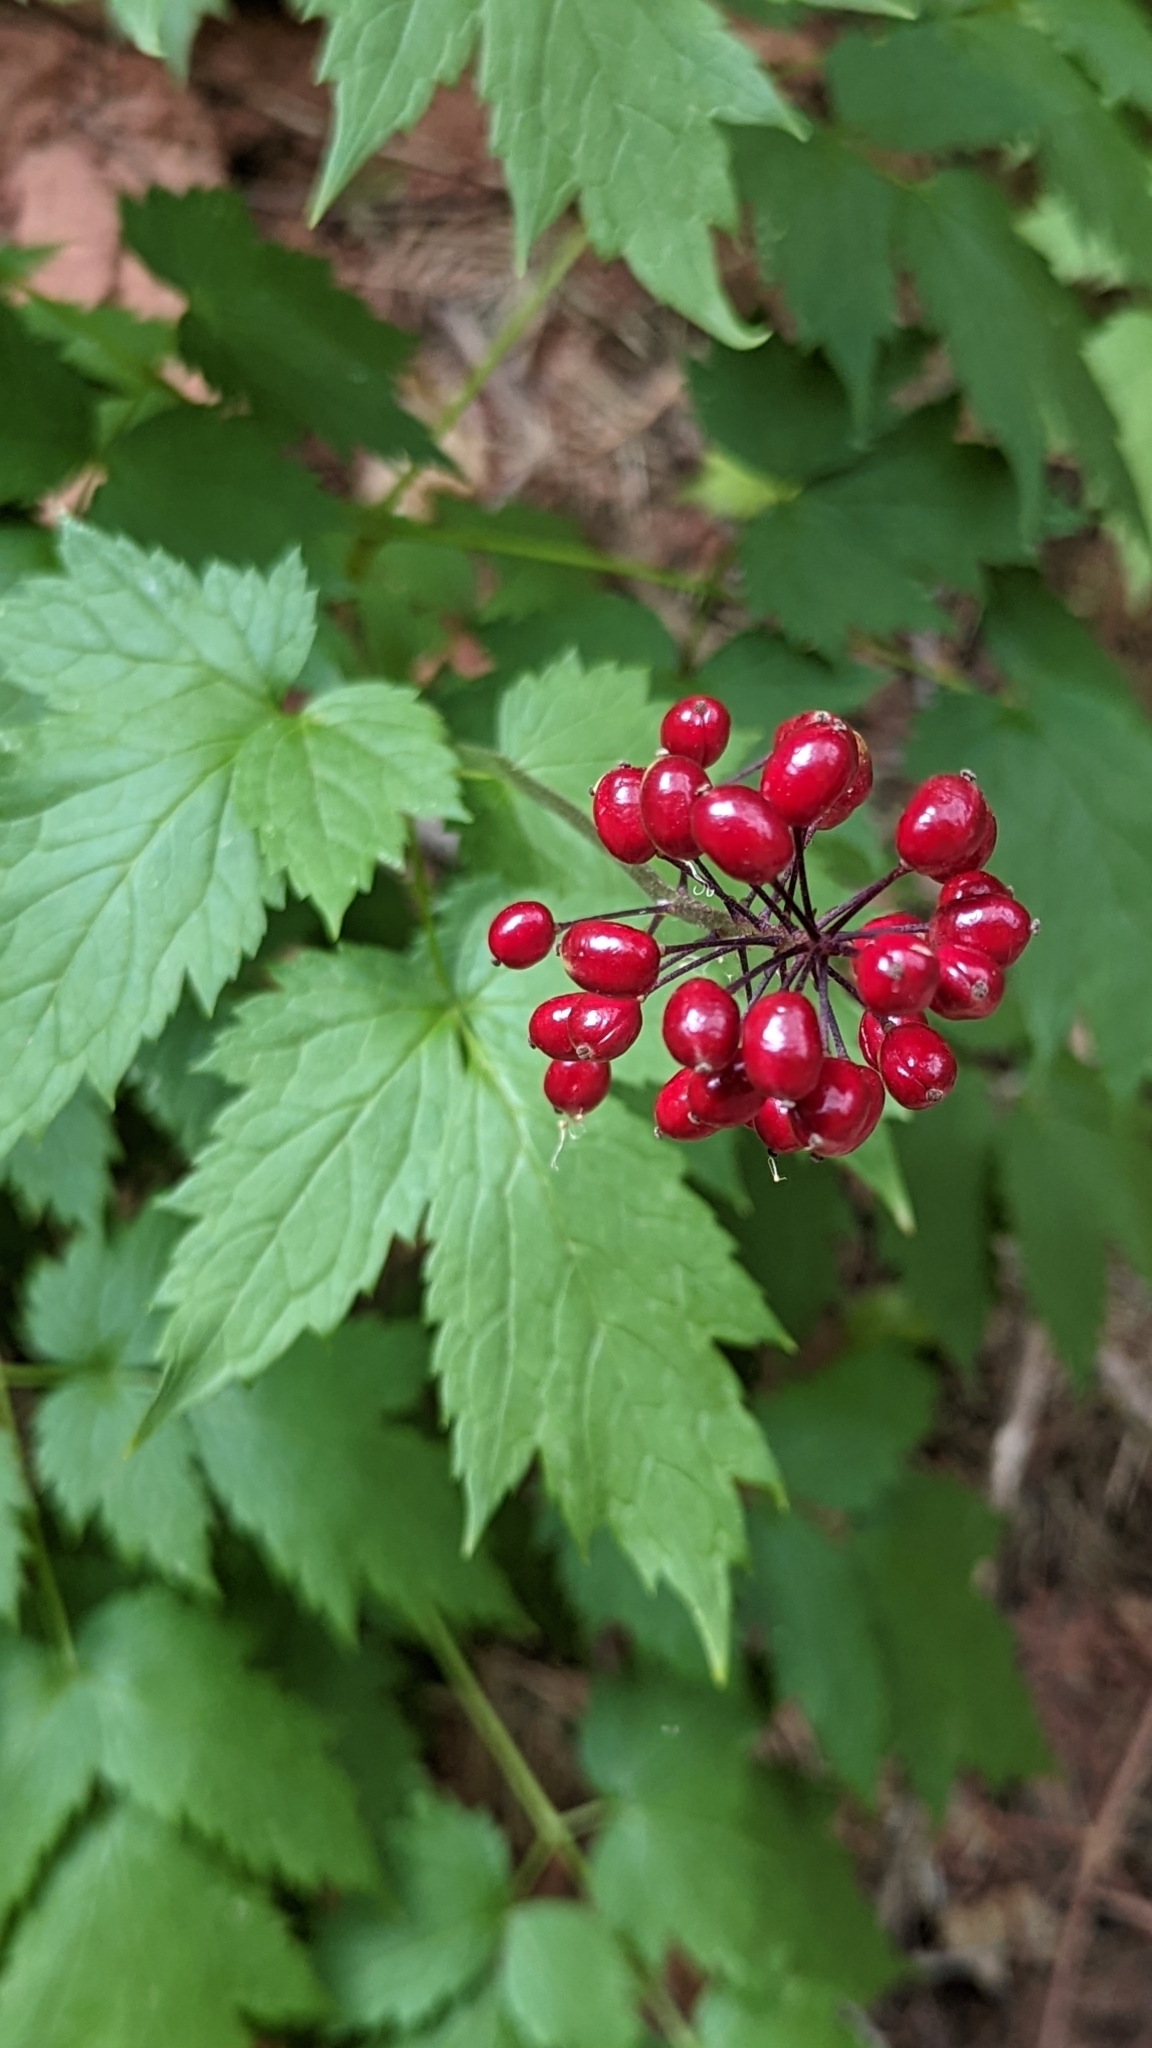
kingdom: Plantae
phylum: Tracheophyta
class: Magnoliopsida
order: Ranunculales
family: Ranunculaceae
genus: Actaea
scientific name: Actaea rubra
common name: Red baneberry
